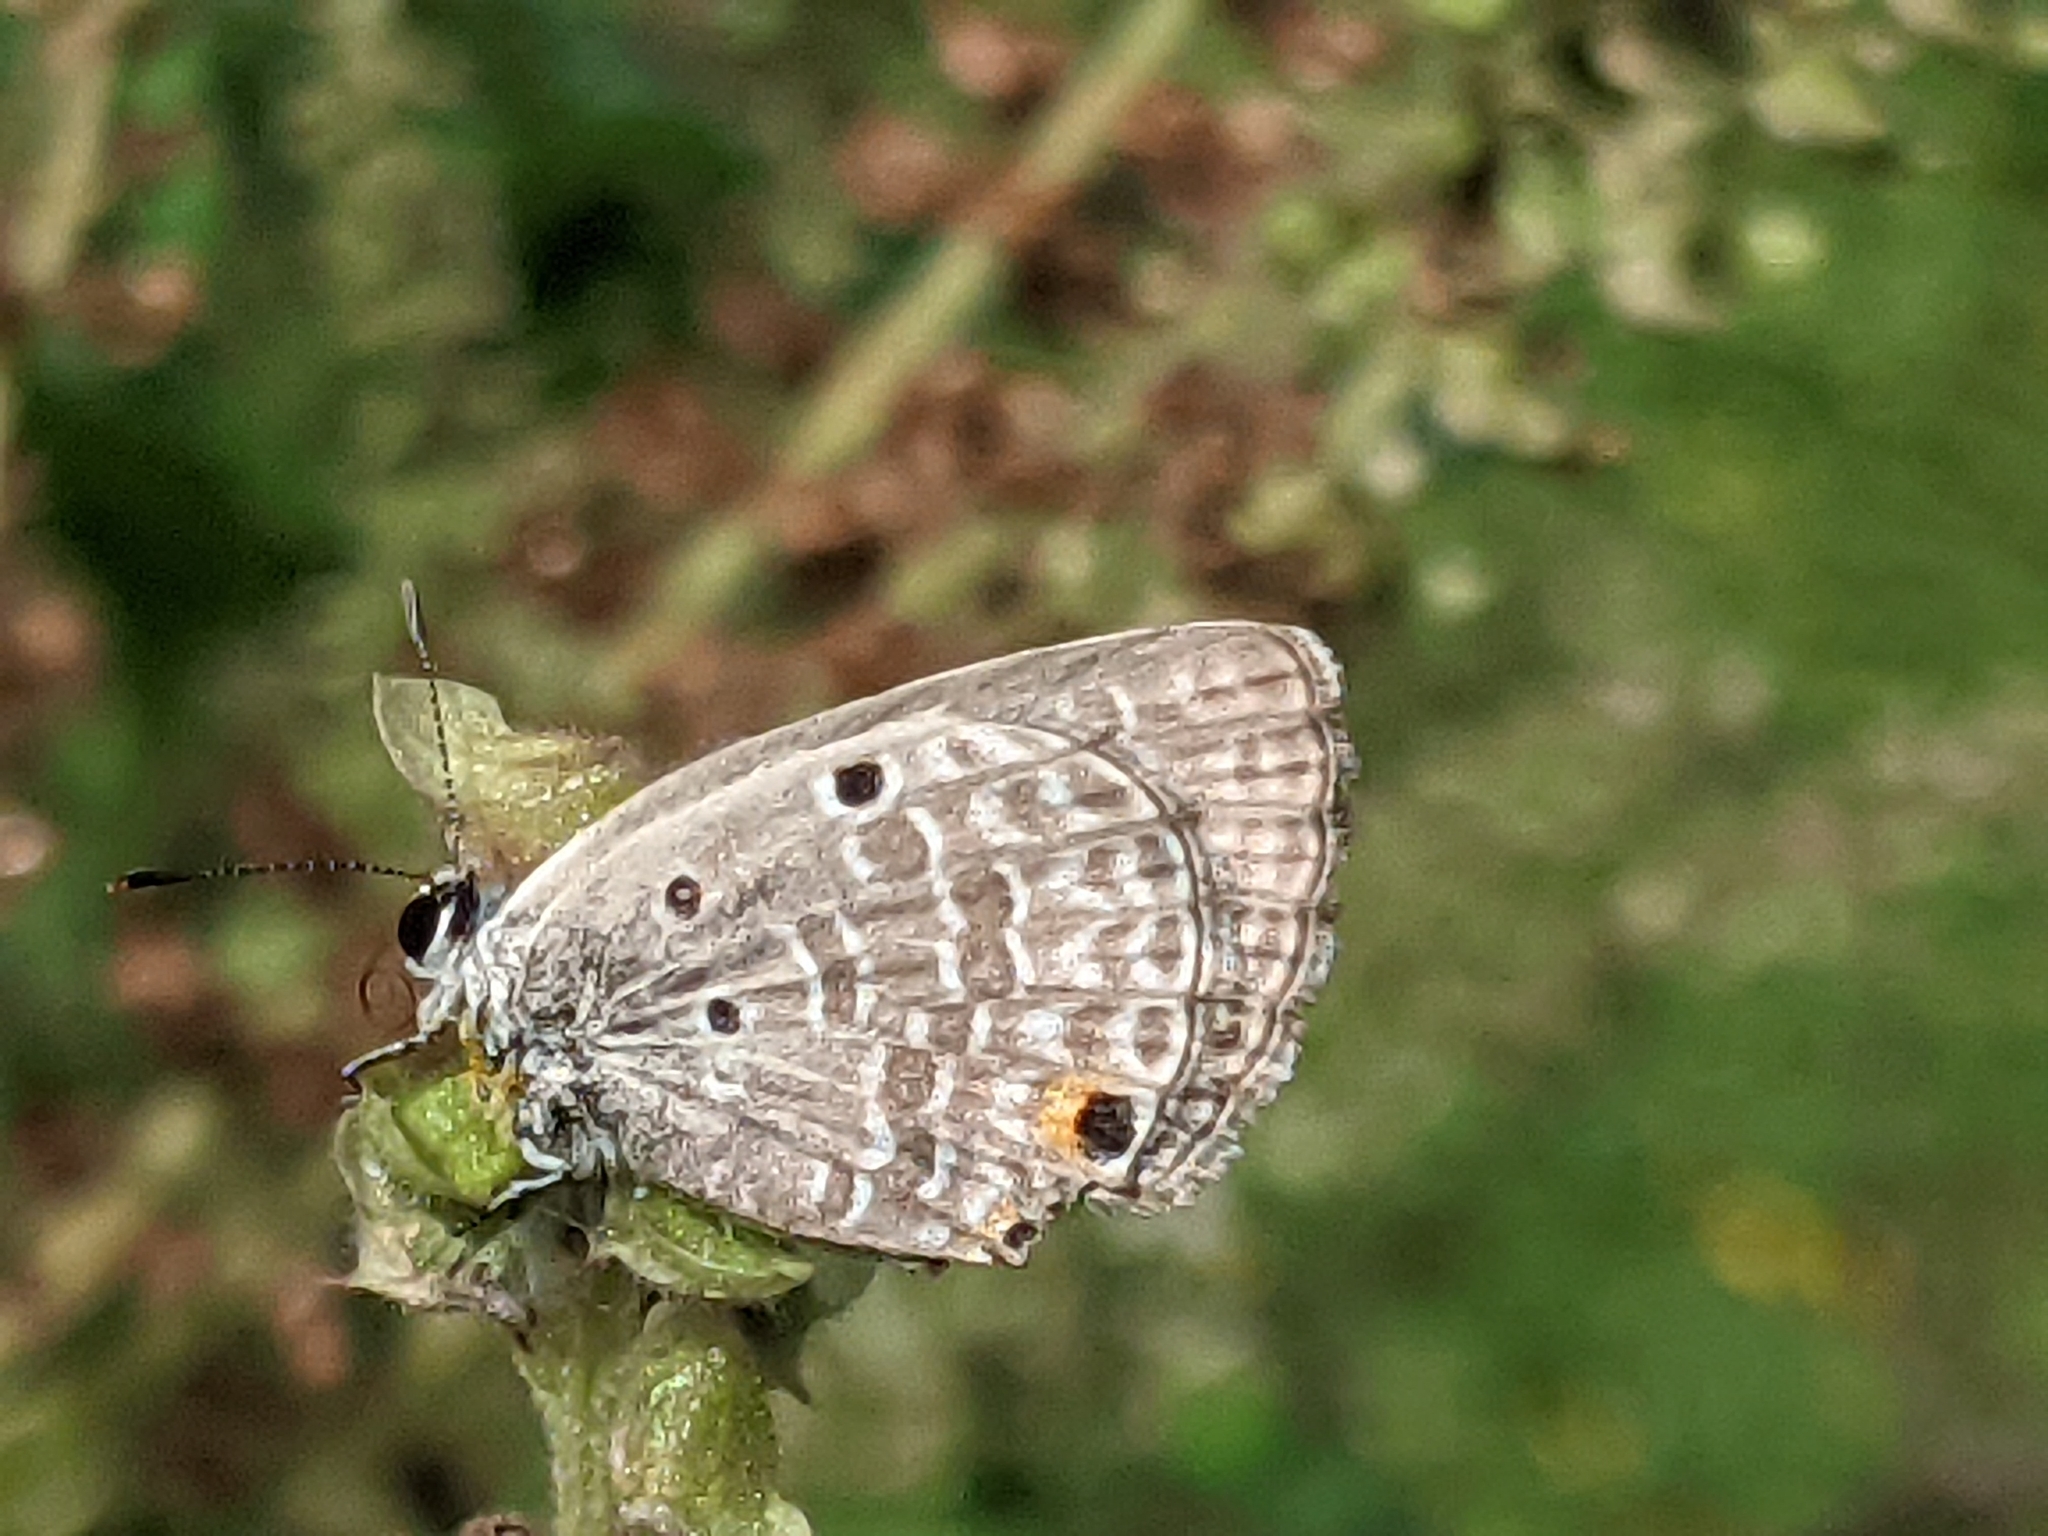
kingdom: Animalia
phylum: Arthropoda
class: Insecta
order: Lepidoptera
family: Lycaenidae
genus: Luthrodes
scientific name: Luthrodes pandava
